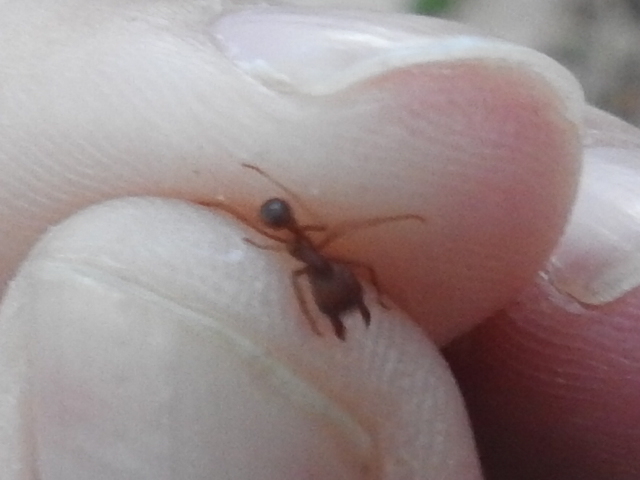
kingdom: Animalia
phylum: Arthropoda
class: Insecta
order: Hymenoptera
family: Formicidae
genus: Atta
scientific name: Atta texana
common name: Texas leafcutting ant
